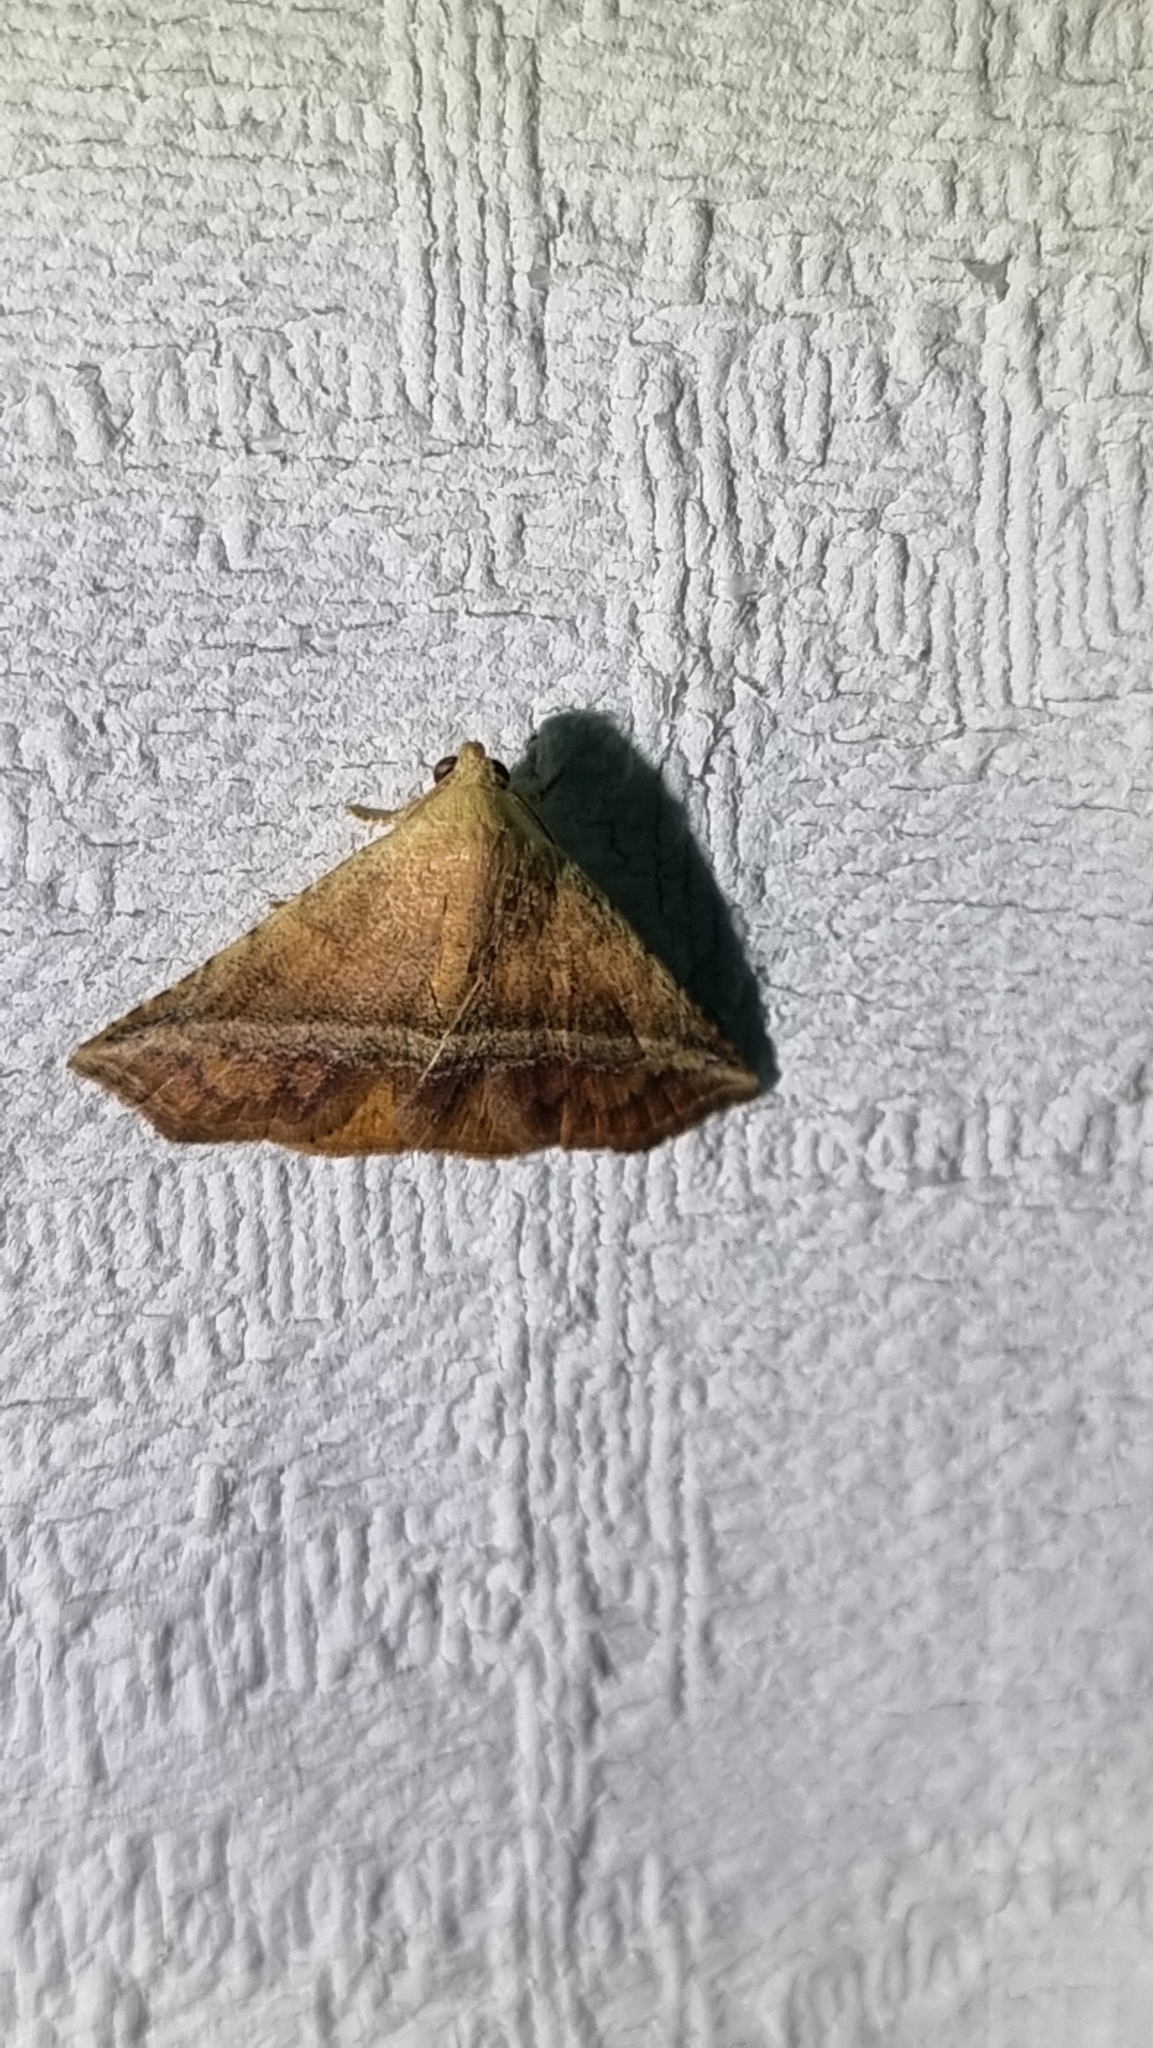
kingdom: Animalia
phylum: Arthropoda
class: Insecta
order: Lepidoptera
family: Noctuidae
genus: Eublemma
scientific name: Eublemma crassiuscula
